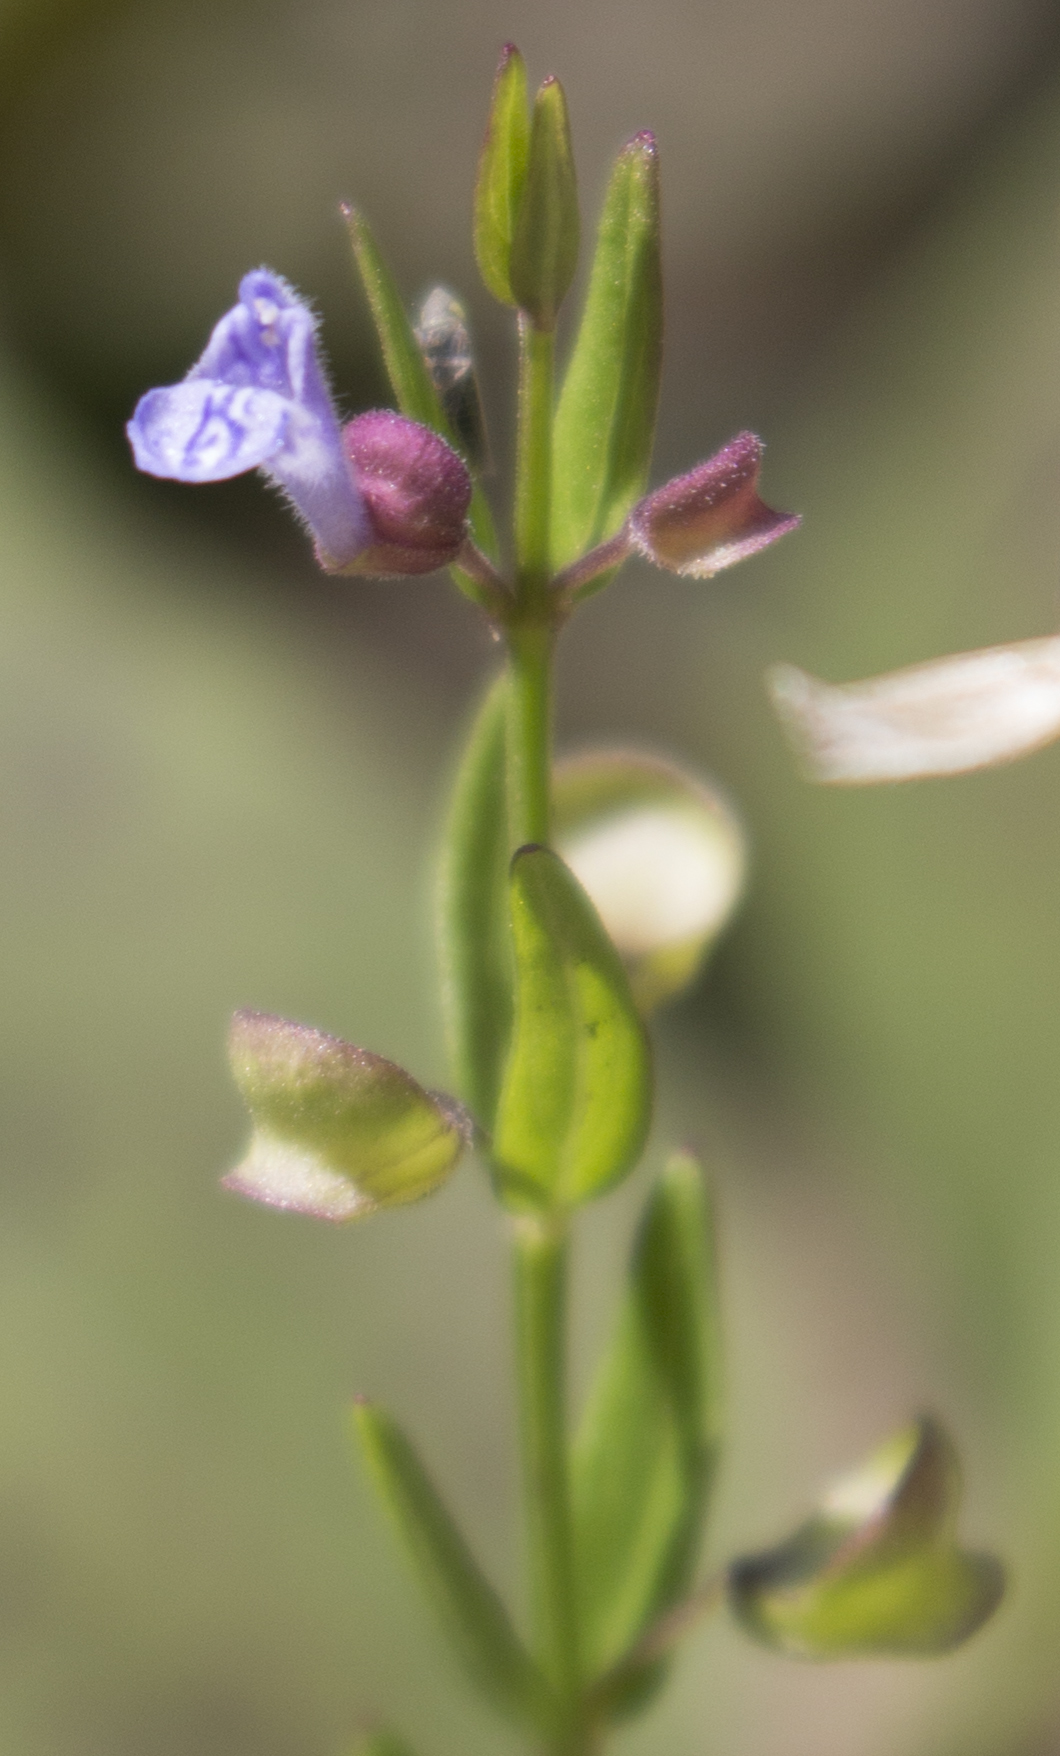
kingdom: Plantae
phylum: Tracheophyta
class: Magnoliopsida
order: Lamiales
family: Lamiaceae
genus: Scutellaria
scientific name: Scutellaria parvula
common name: Little scullcap
